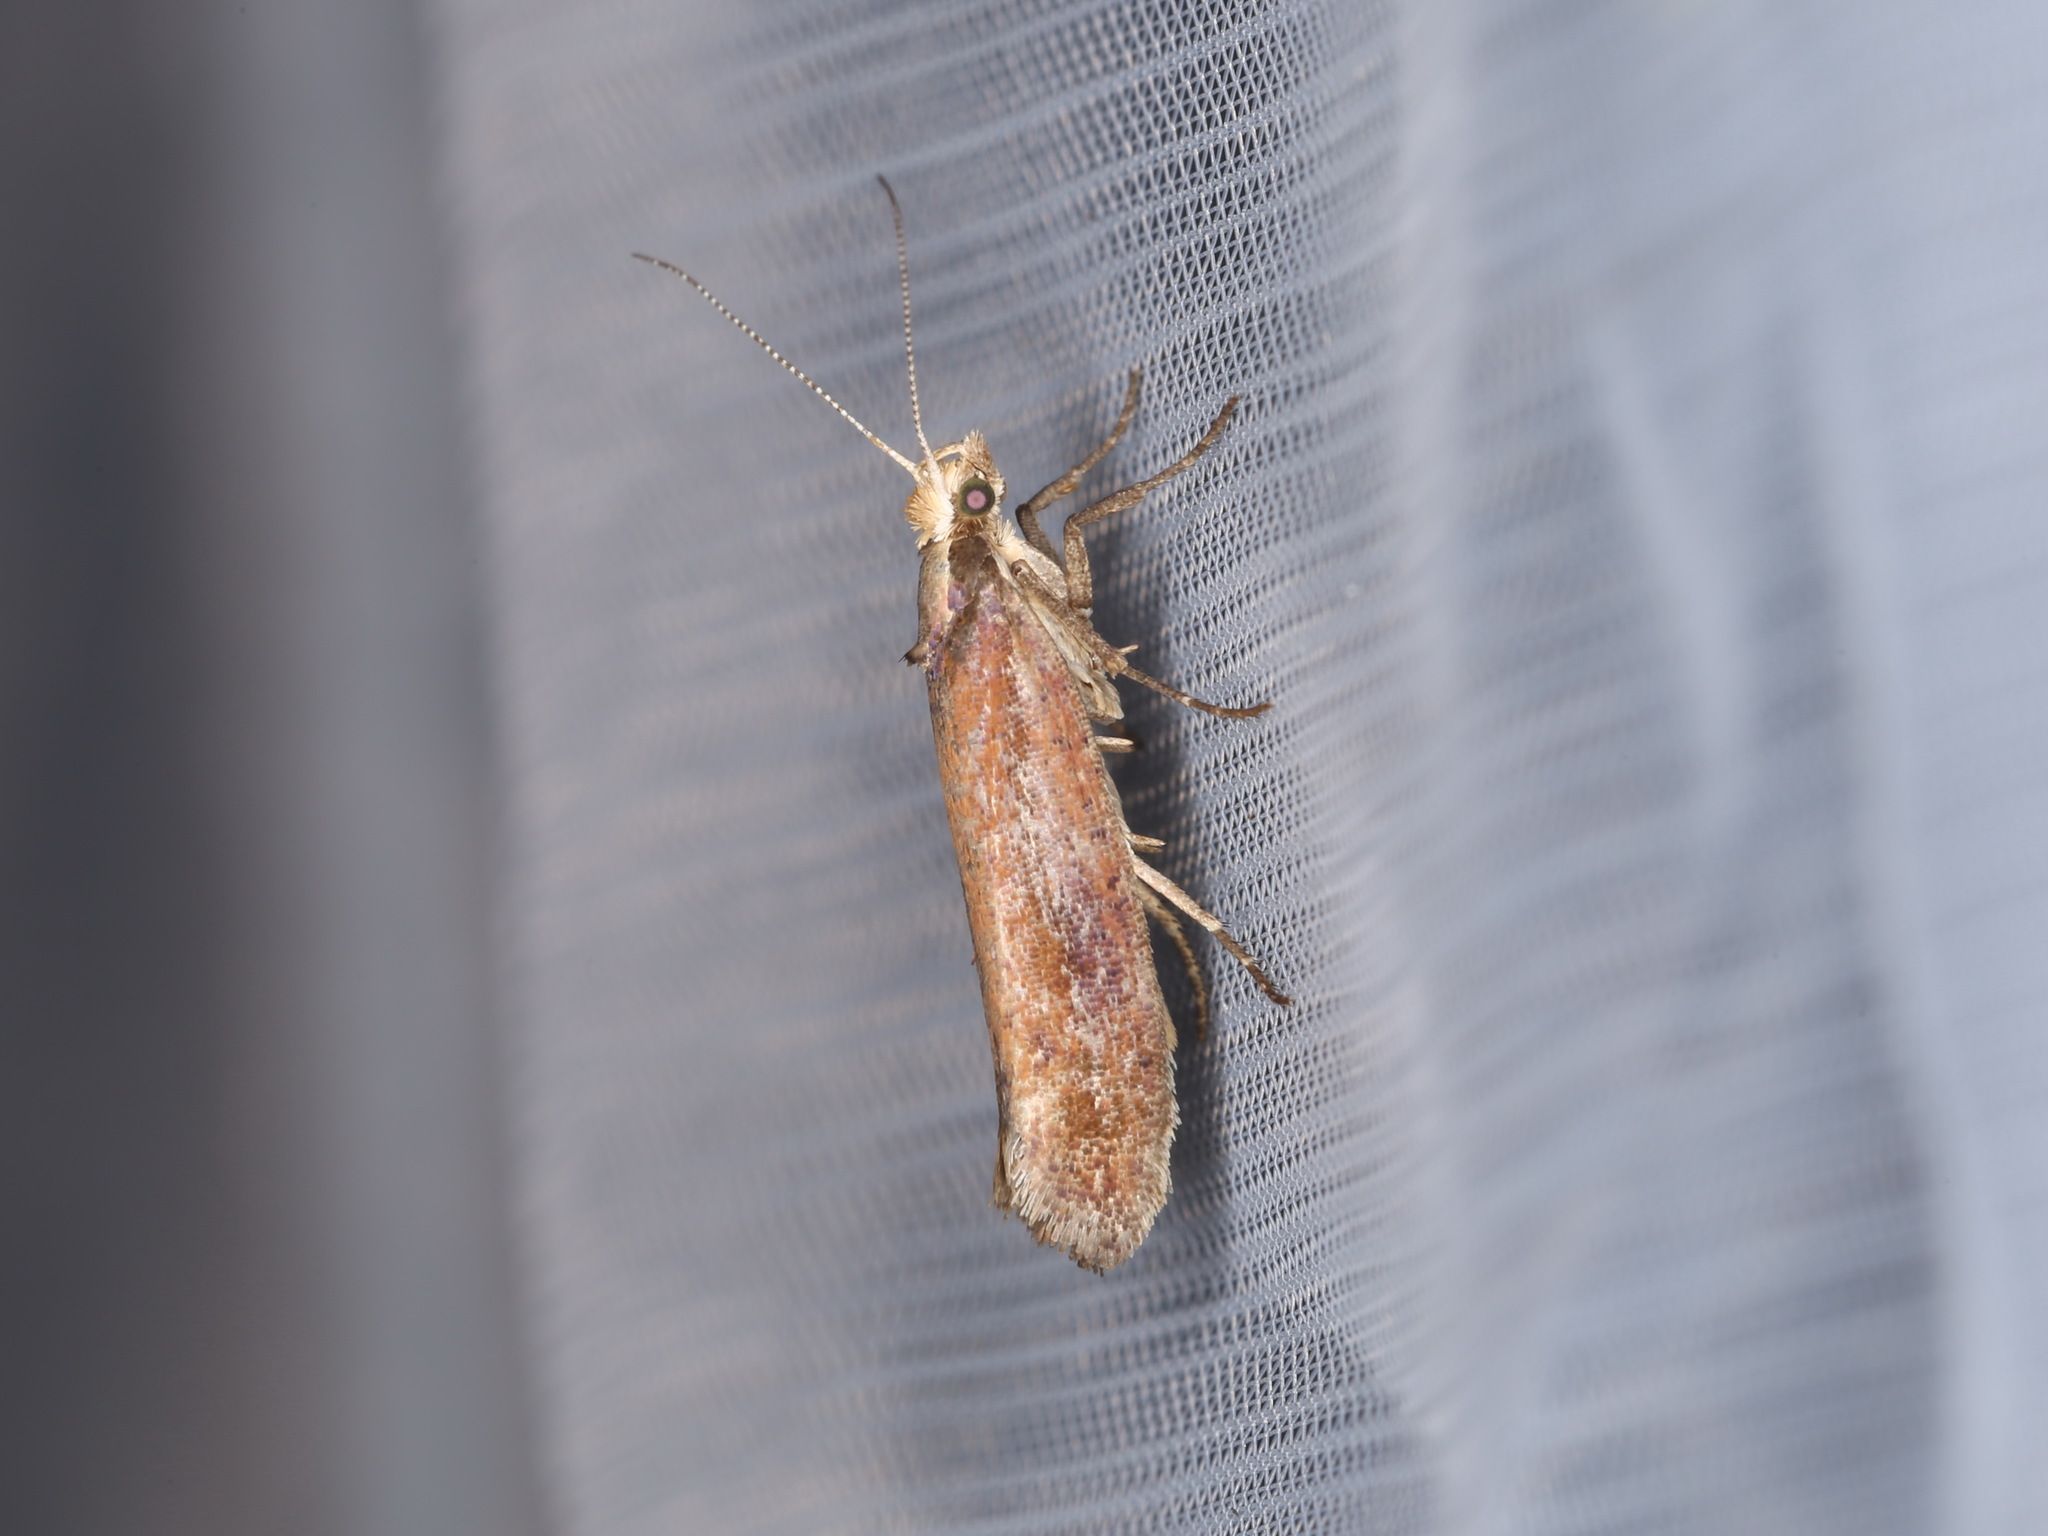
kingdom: Animalia
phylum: Arthropoda
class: Insecta
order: Lepidoptera
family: Plutellidae
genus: Ypsolophus
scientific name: Ypsolophus ustella
